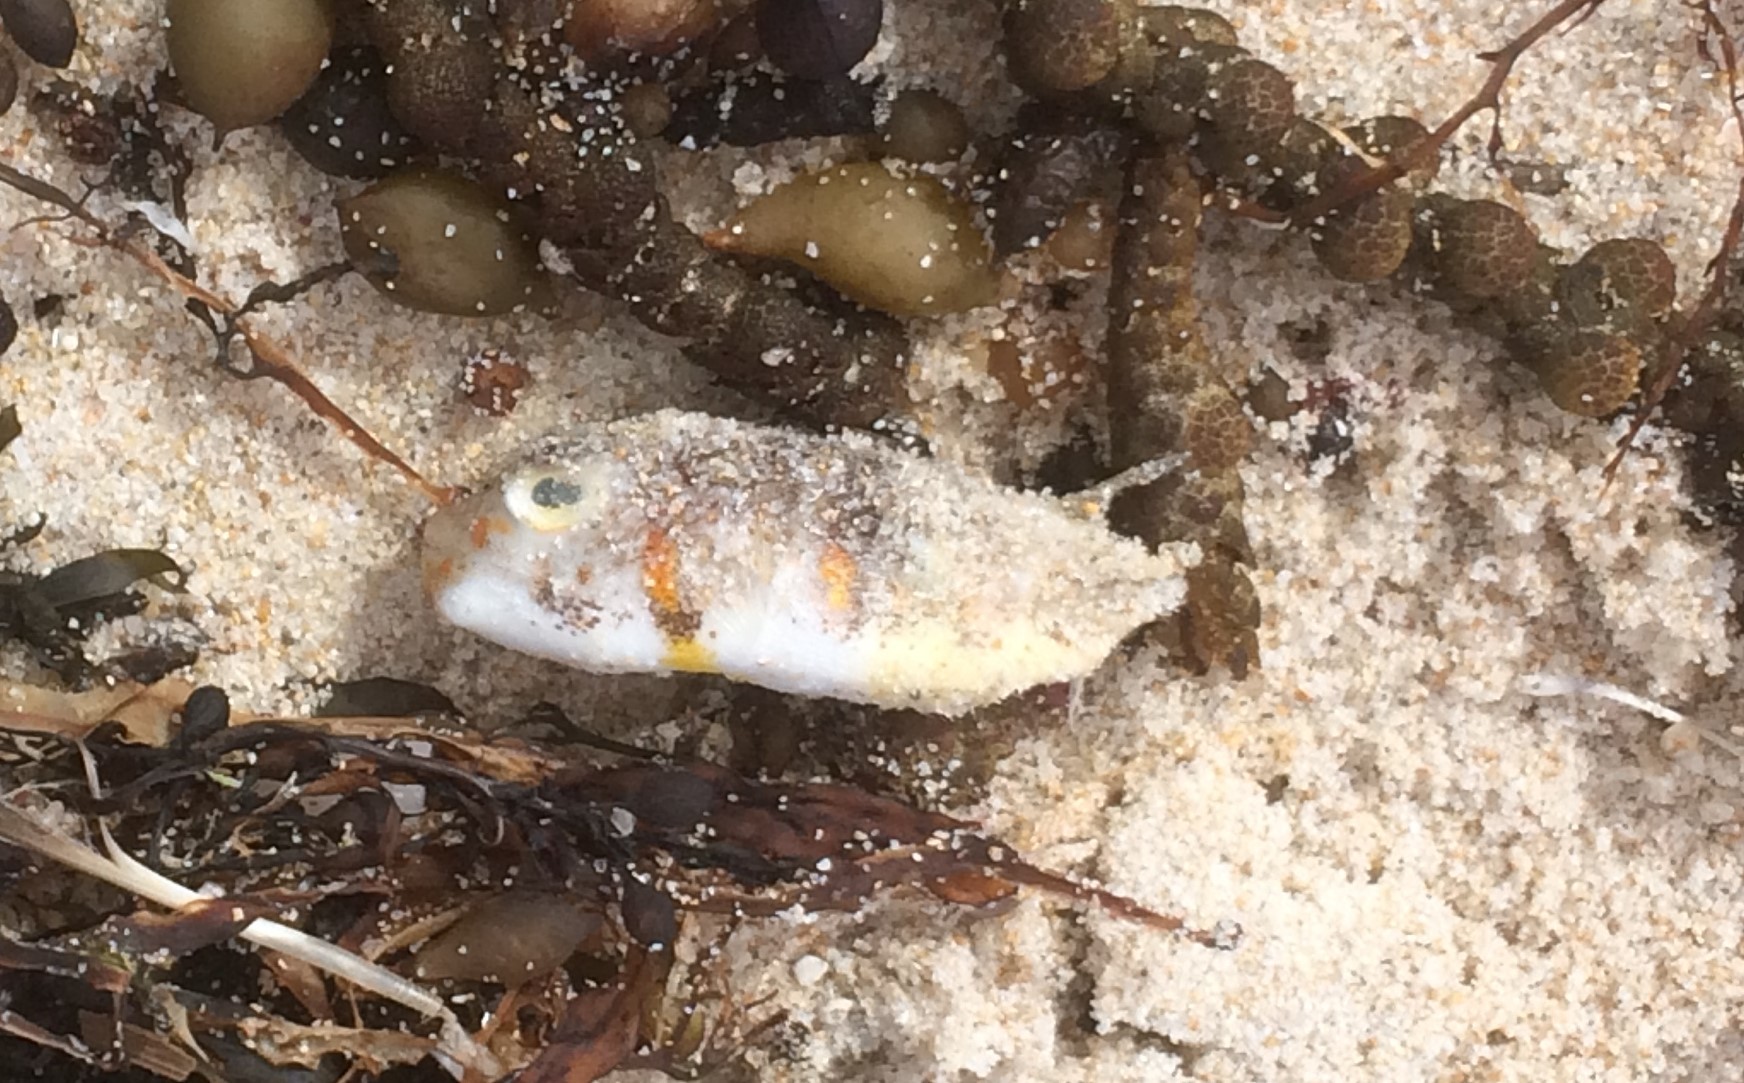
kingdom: Animalia
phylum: Chordata
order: Tetraodontiformes
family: Tetraodontidae
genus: Polyspina
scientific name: Polyspina piosae
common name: Orange-barred pufferfish
